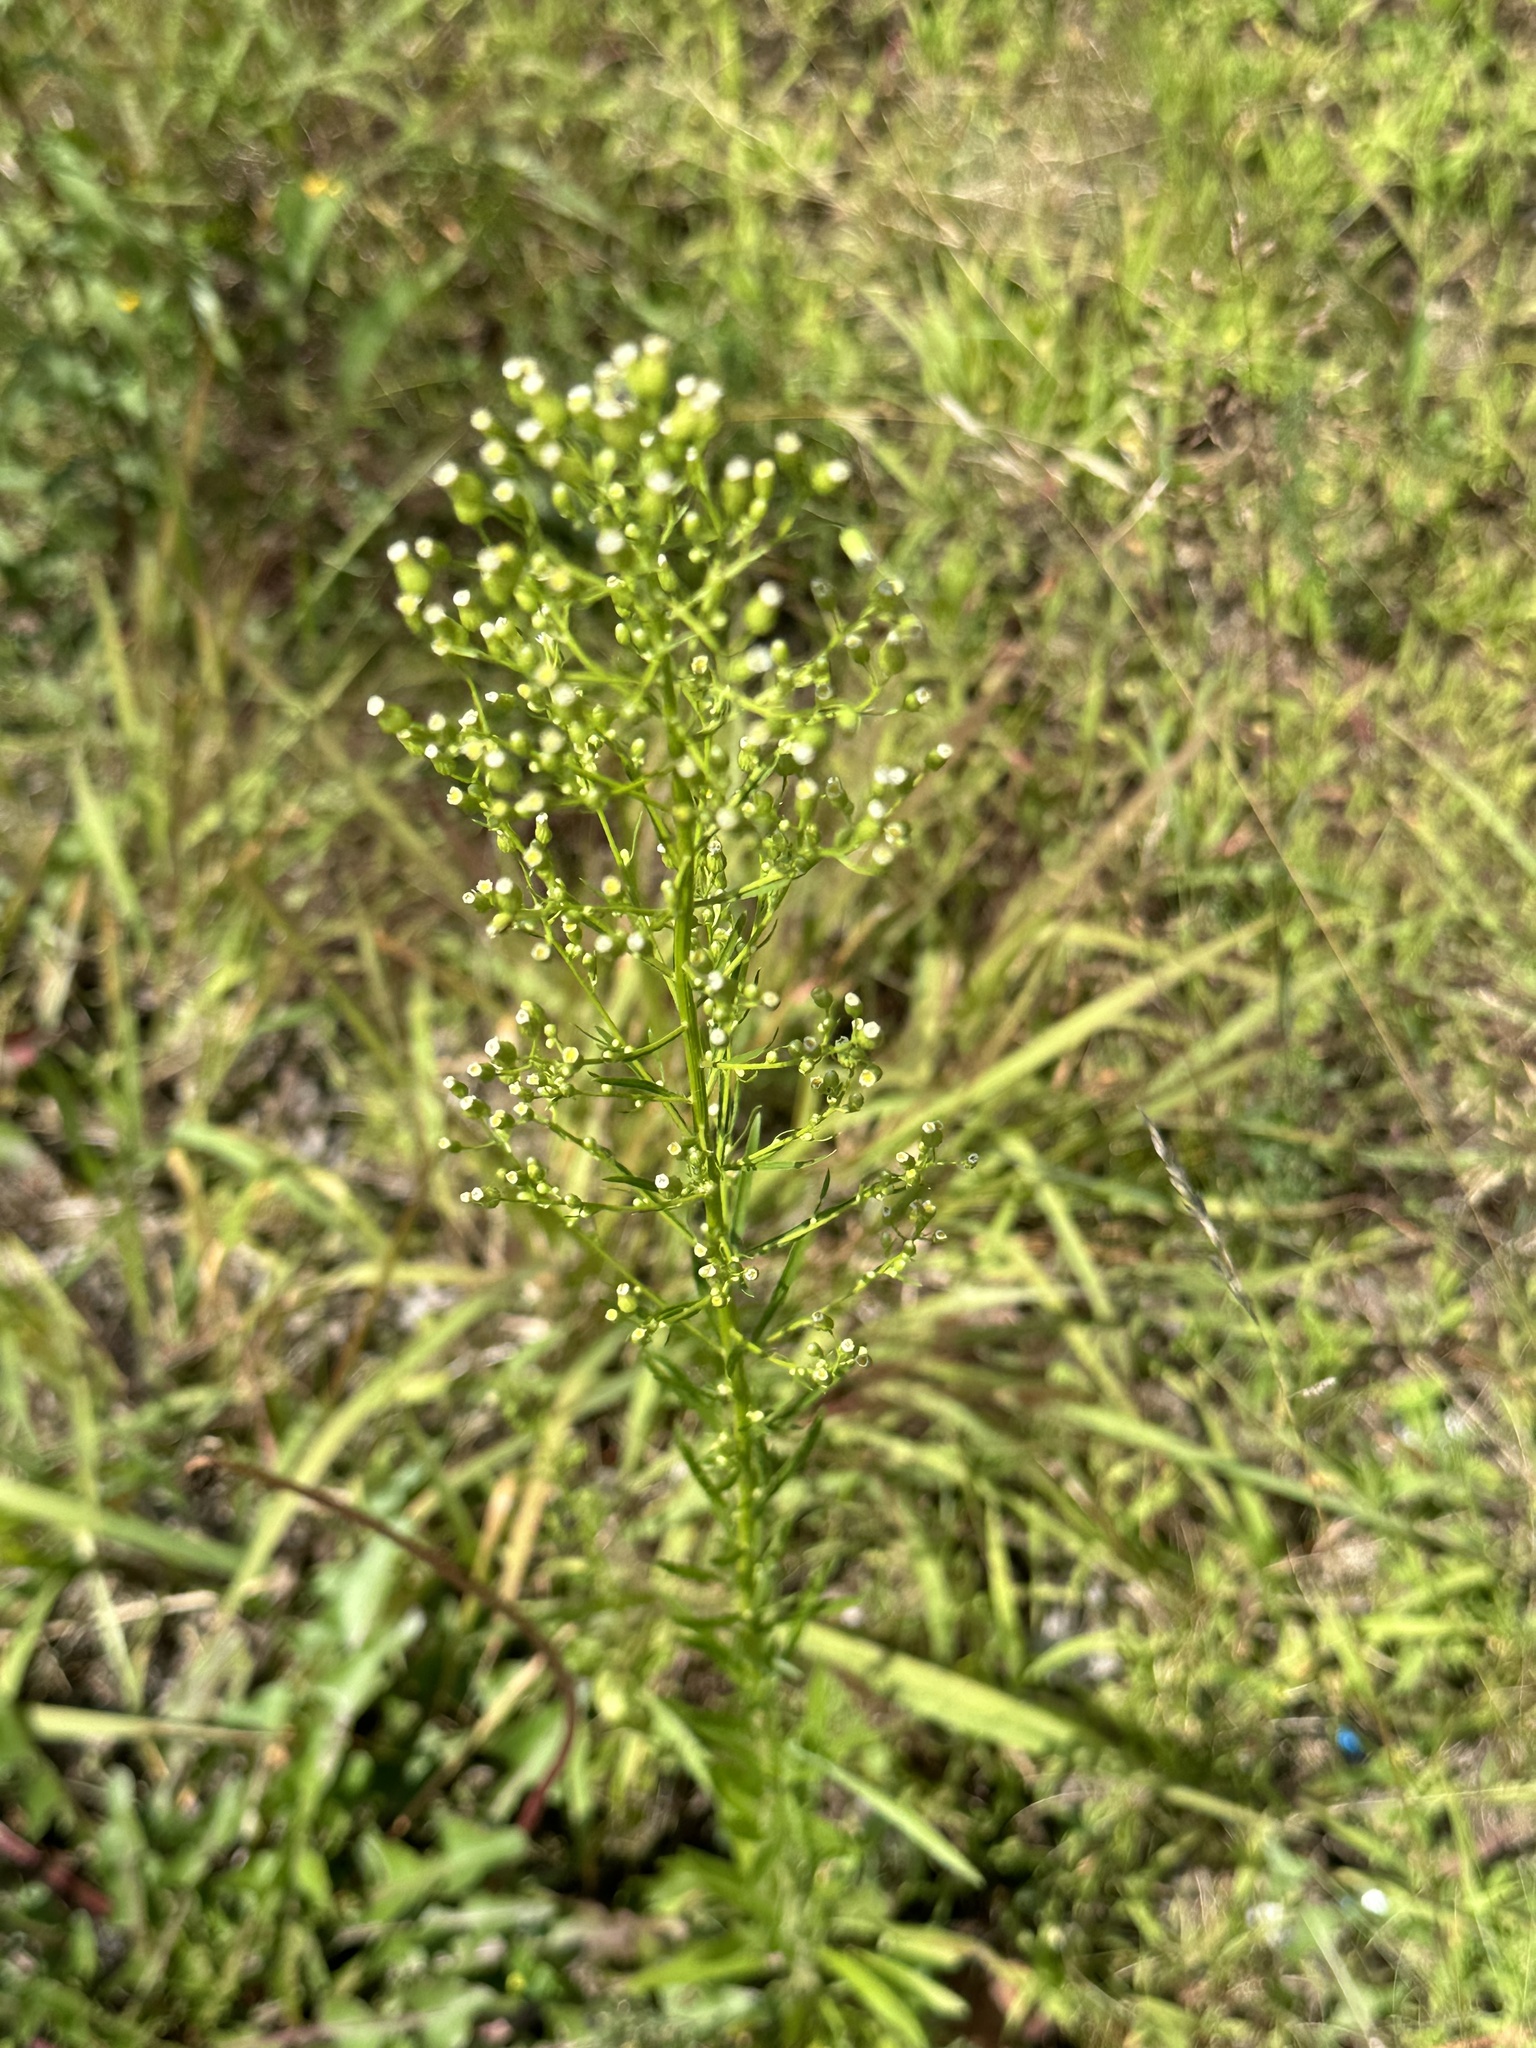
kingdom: Plantae
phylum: Tracheophyta
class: Magnoliopsida
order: Asterales
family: Asteraceae
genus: Erigeron
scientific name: Erigeron canadensis
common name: Canadian fleabane
